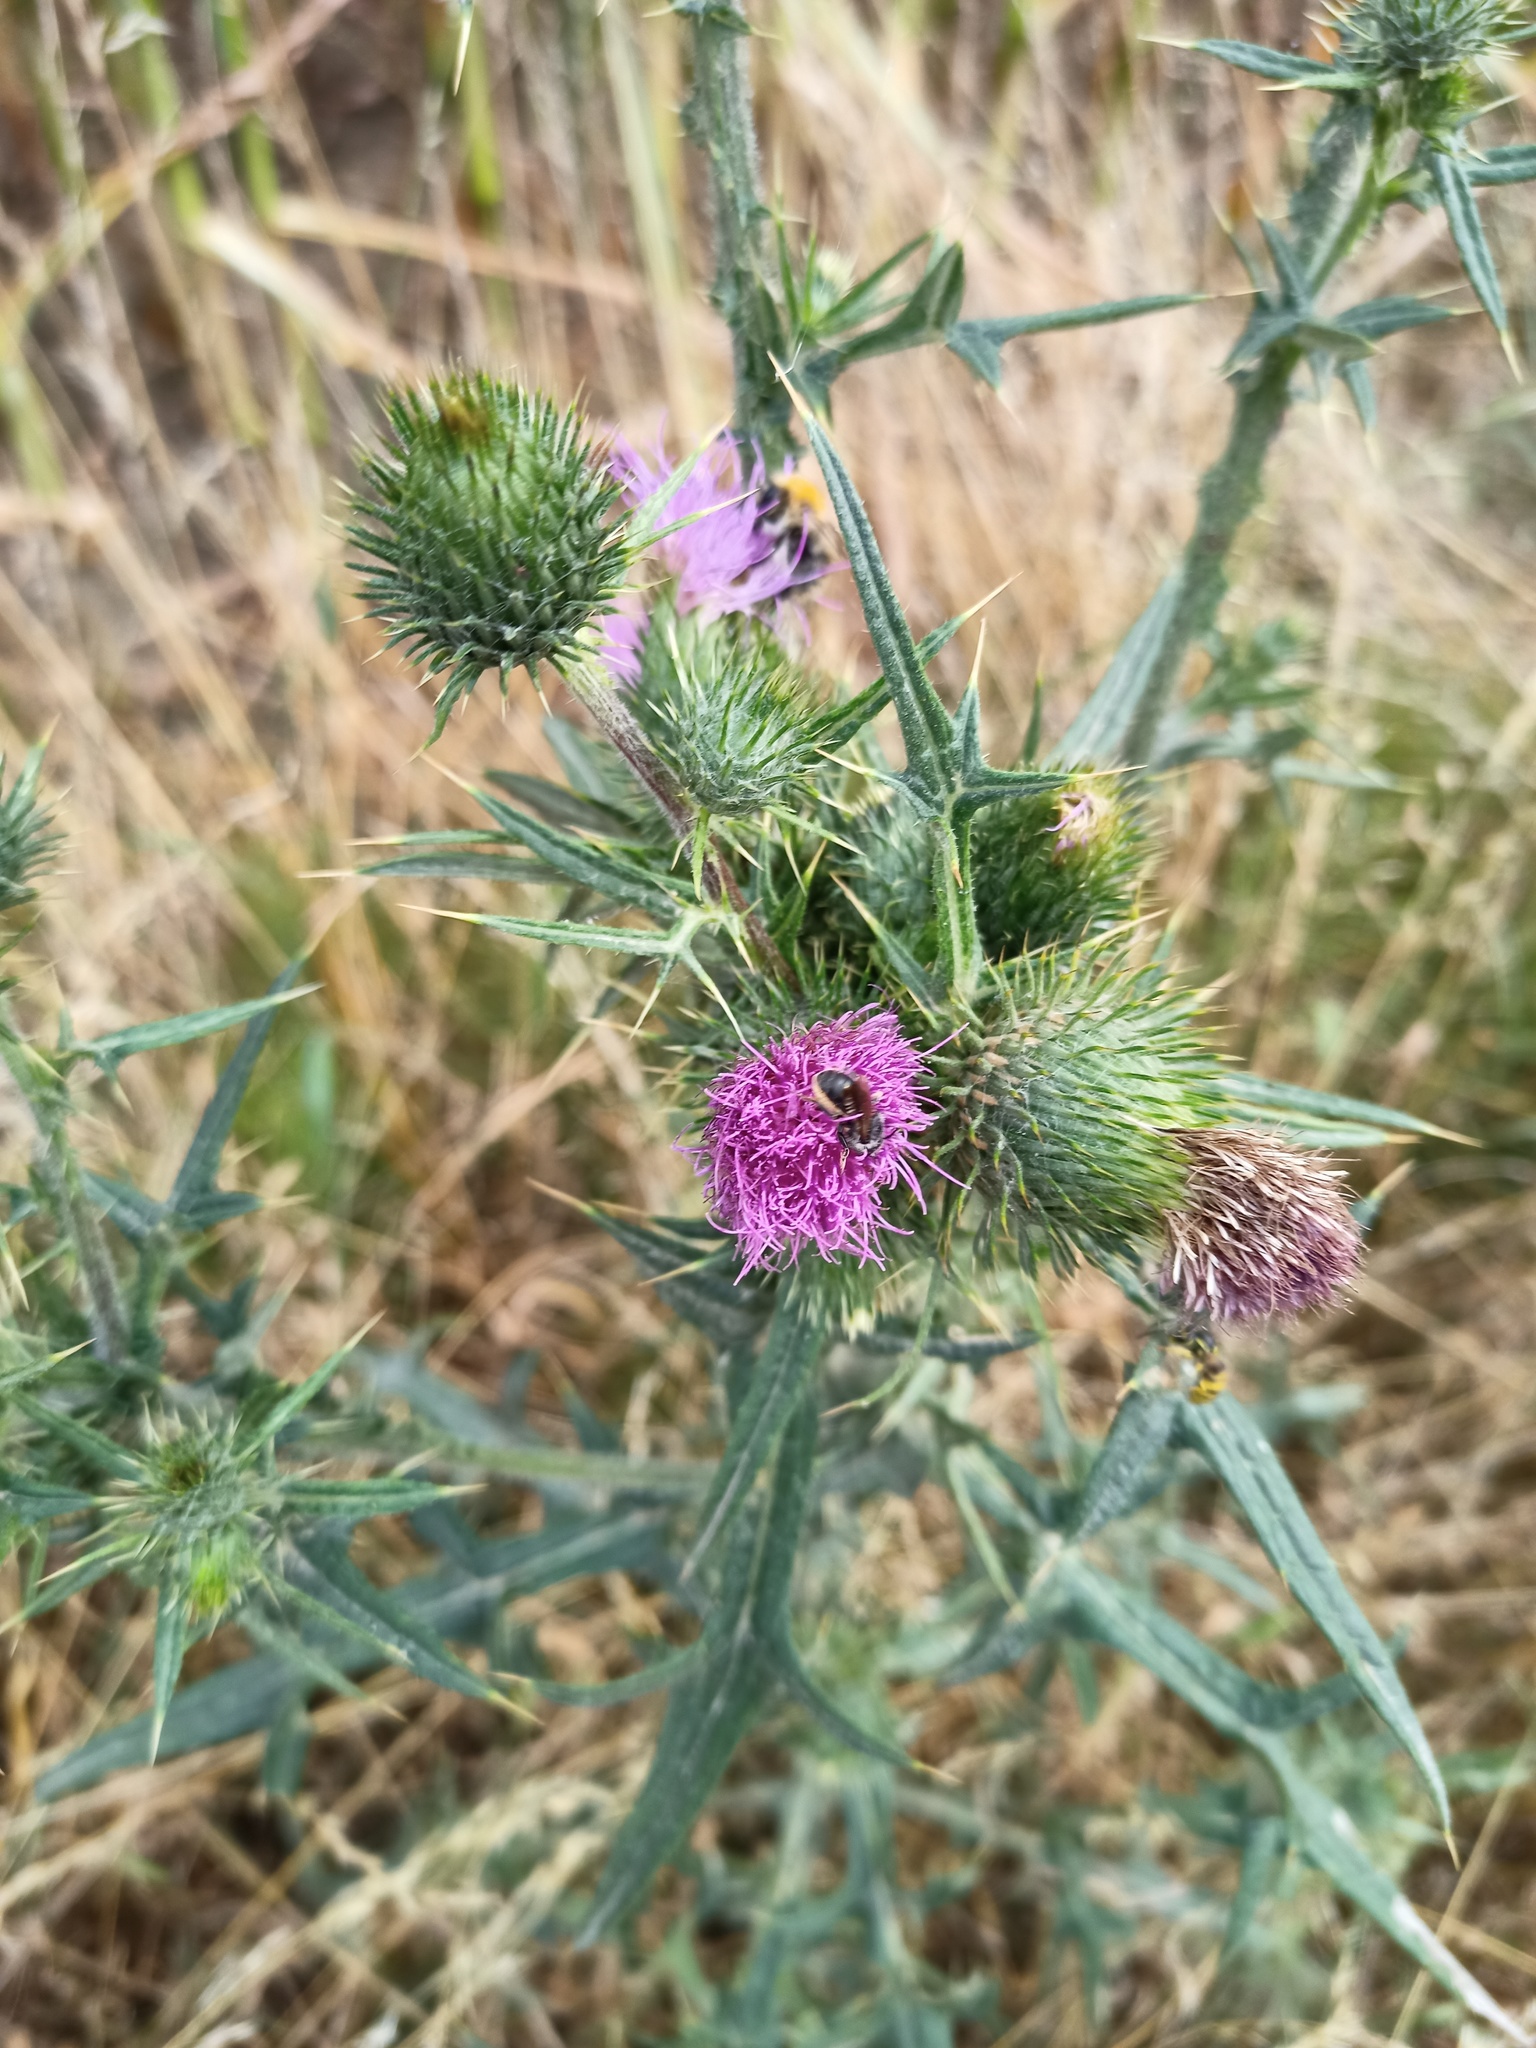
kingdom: Plantae
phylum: Tracheophyta
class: Magnoliopsida
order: Asterales
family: Asteraceae
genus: Cirsium
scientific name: Cirsium vulgare
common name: Bull thistle
